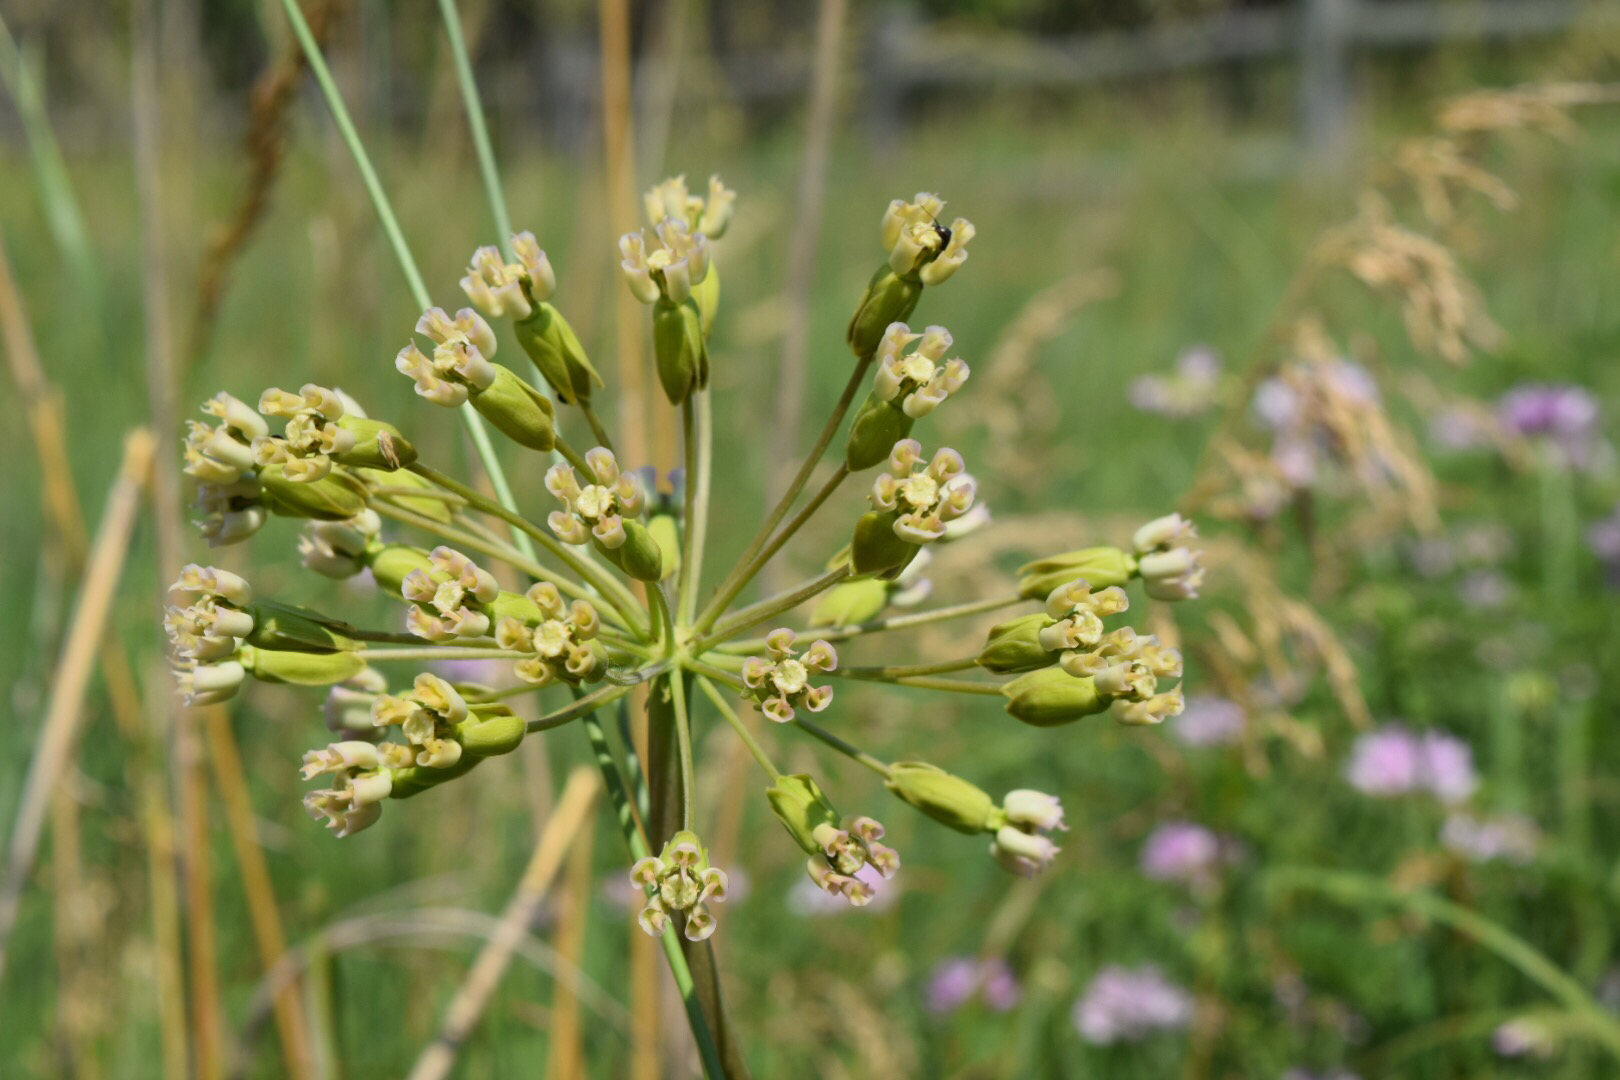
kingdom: Plantae
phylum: Tracheophyta
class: Magnoliopsida
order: Gentianales
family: Apocynaceae
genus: Asclepias
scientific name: Asclepias amplexicaulis
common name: Blunt-leaf milkweed
